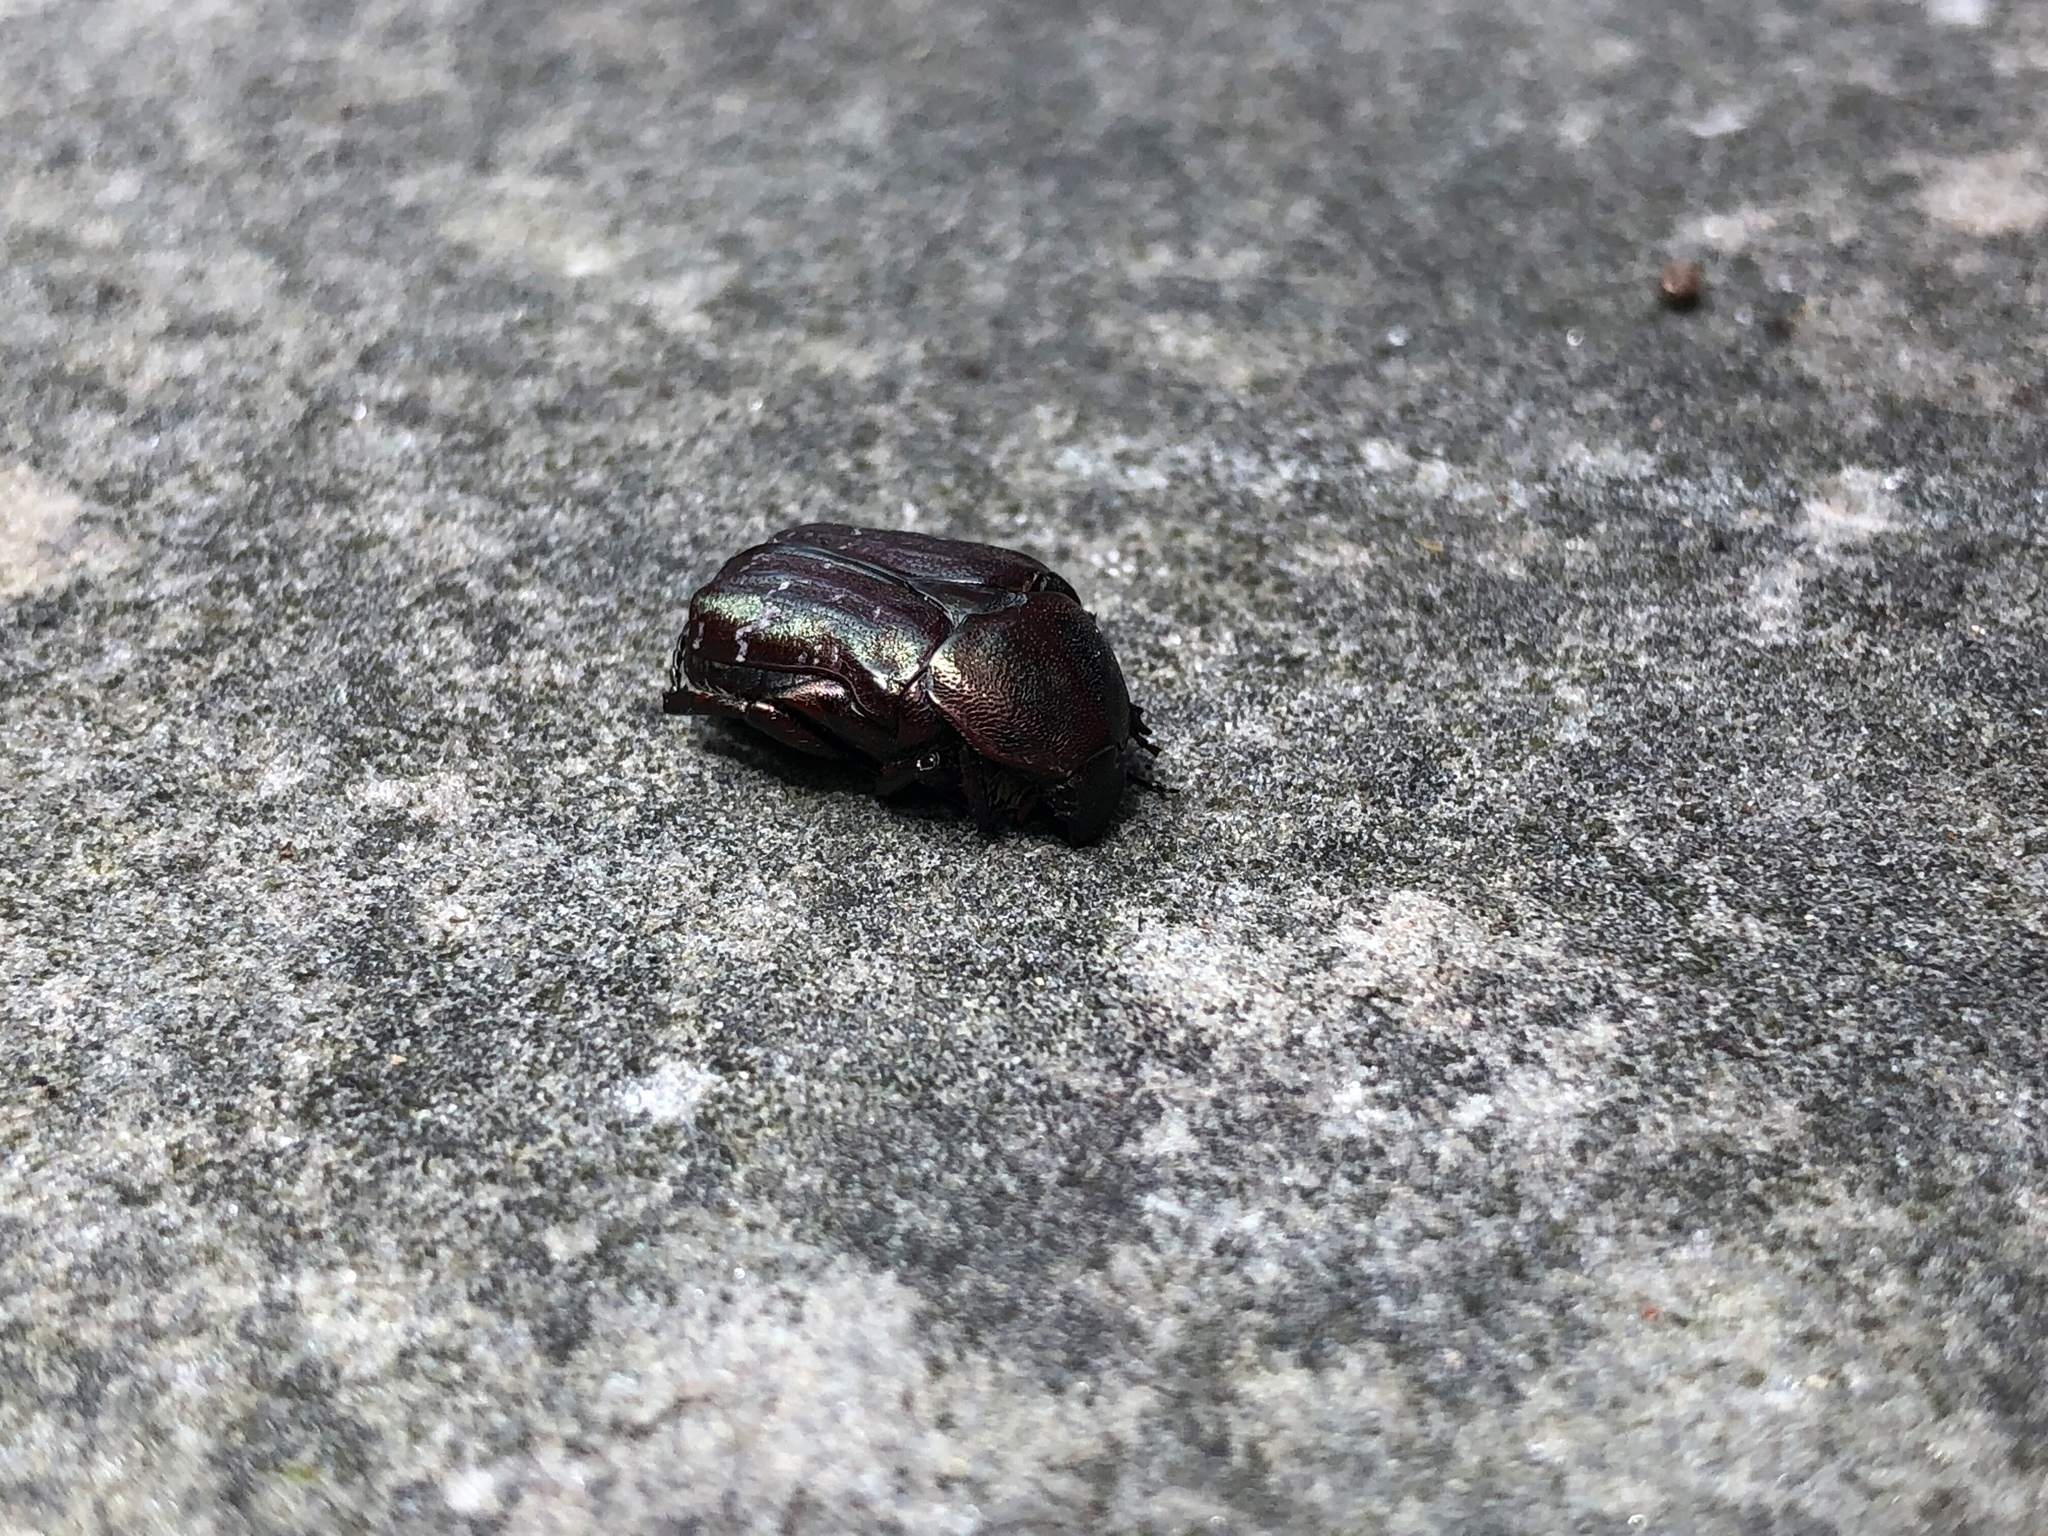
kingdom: Animalia
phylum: Arthropoda
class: Insecta
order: Coleoptera
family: Scarabaeidae
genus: Euphoria
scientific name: Euphoria sepulcralis
